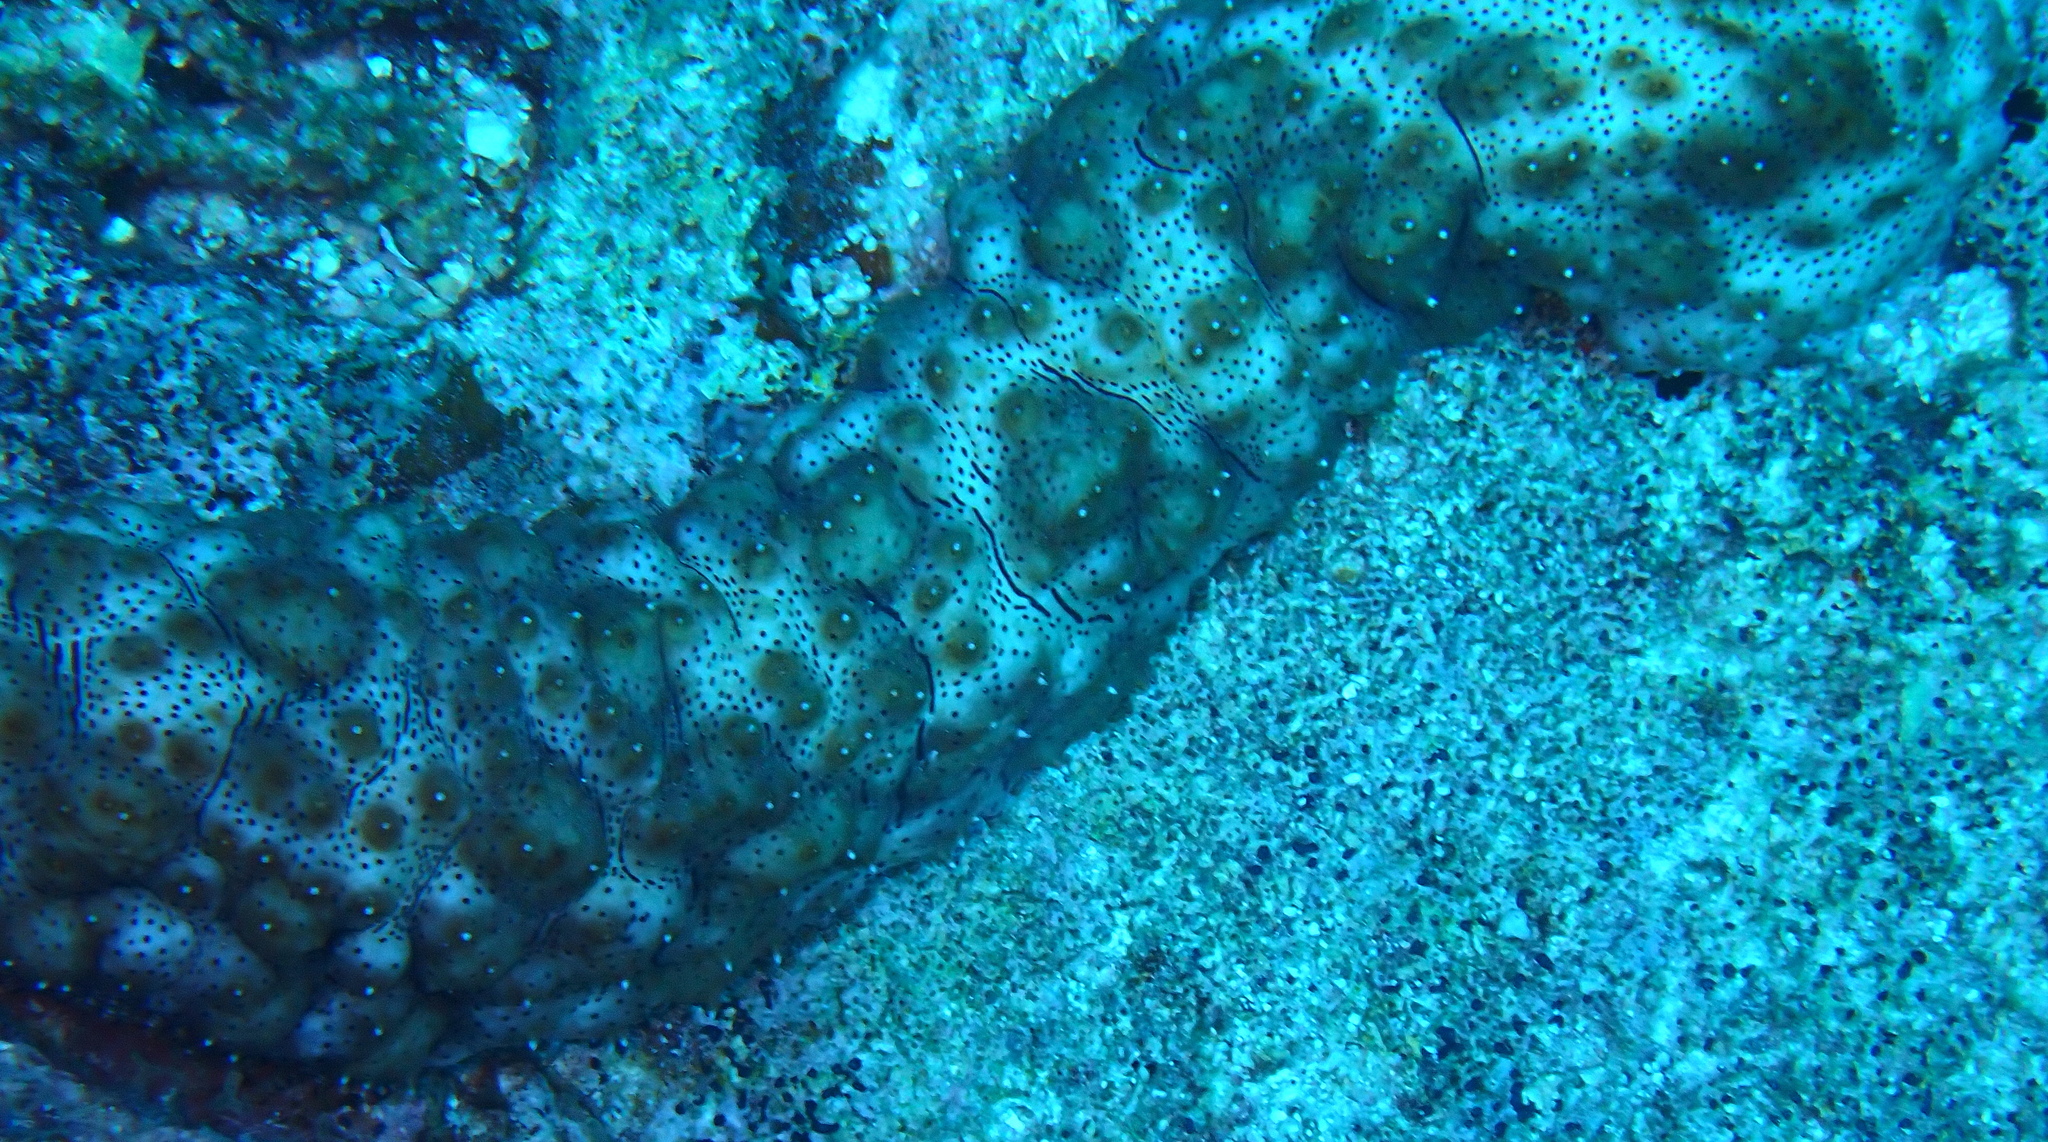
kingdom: Animalia
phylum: Echinodermata
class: Holothuroidea
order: Holothuriida
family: Holothuriidae
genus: Pearsonothuria
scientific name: Pearsonothuria graeffei
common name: Blackspotted sea cucumber
